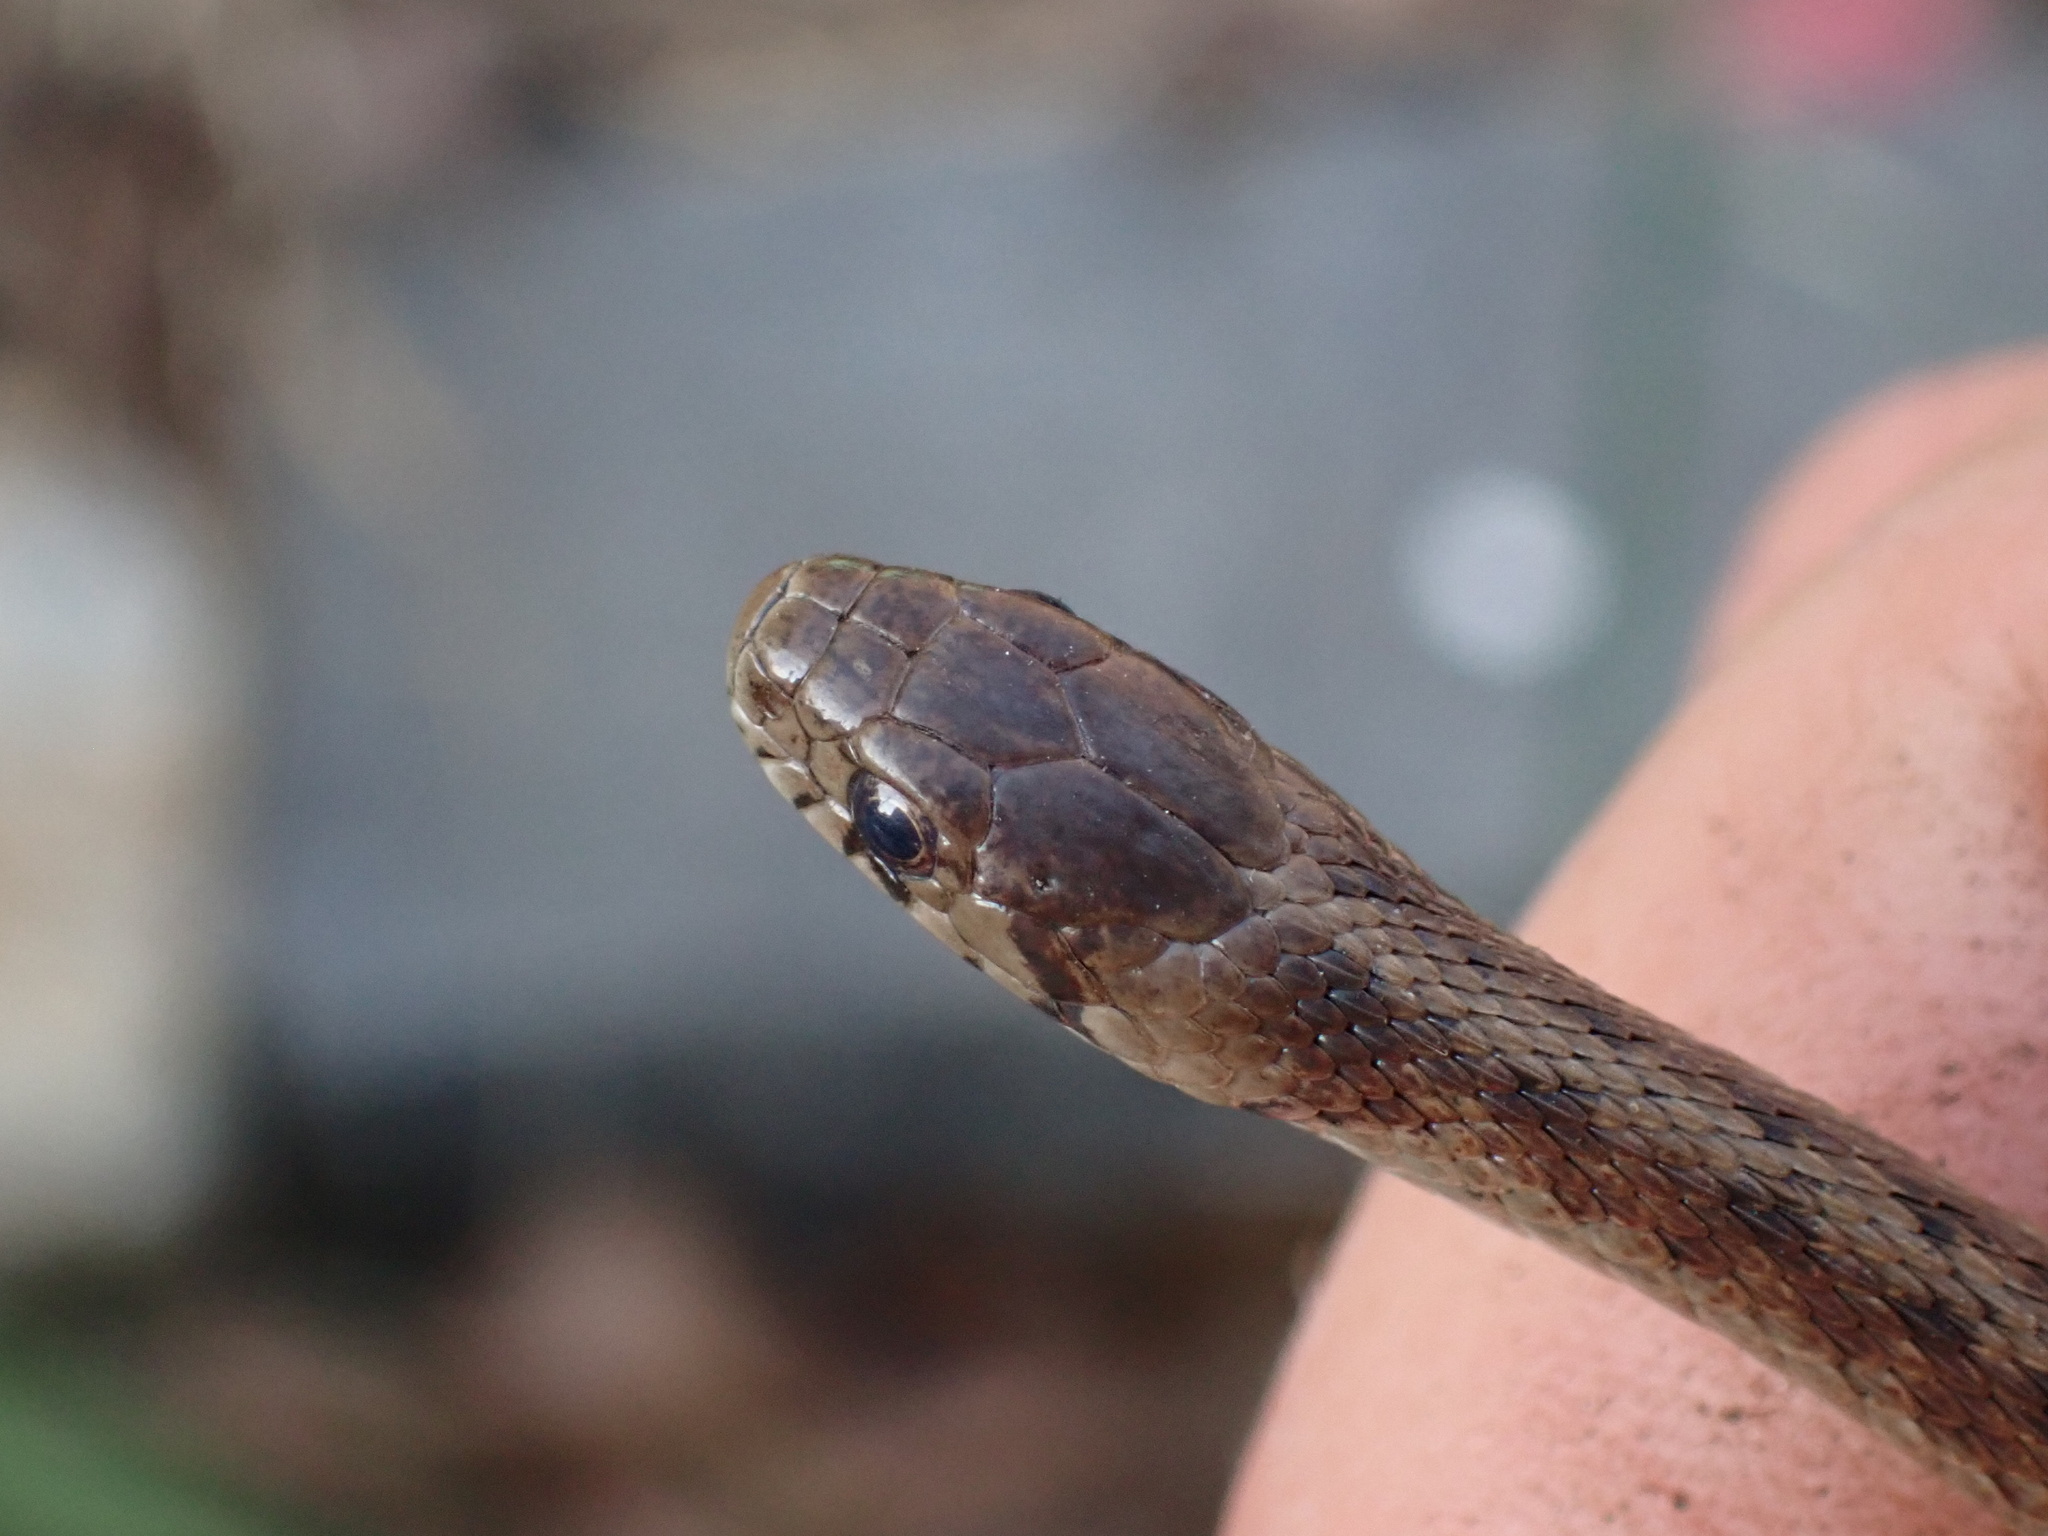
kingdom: Animalia
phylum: Chordata
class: Squamata
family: Colubridae
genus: Storeria
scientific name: Storeria dekayi
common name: (dekay’s) brown snake
